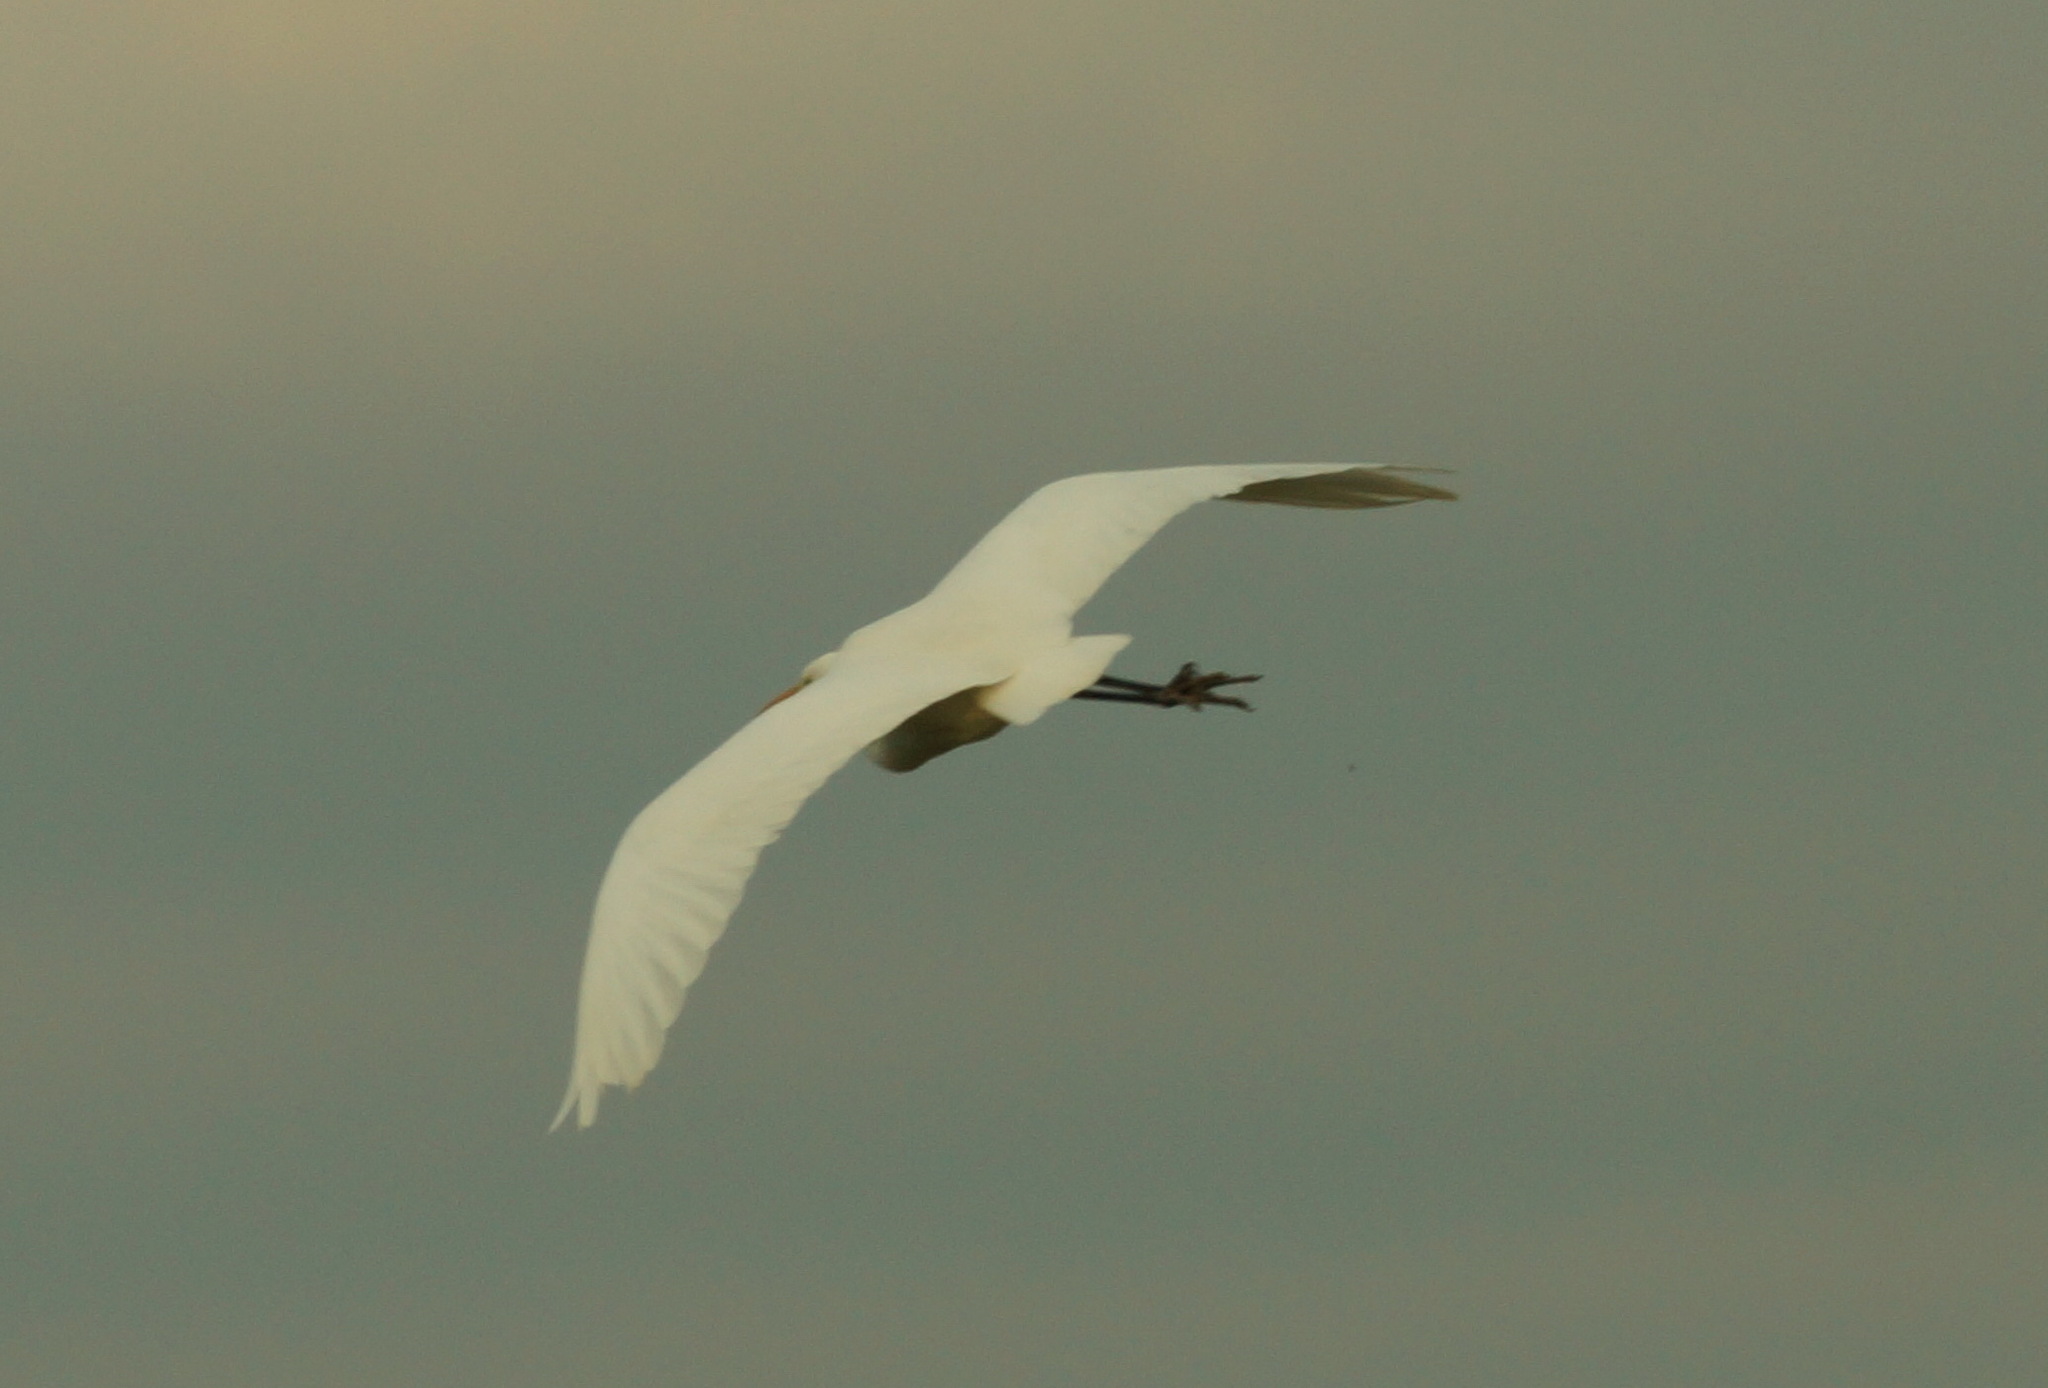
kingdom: Animalia
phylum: Chordata
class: Aves
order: Pelecaniformes
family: Ardeidae
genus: Ardea
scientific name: Ardea alba
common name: Great egret
